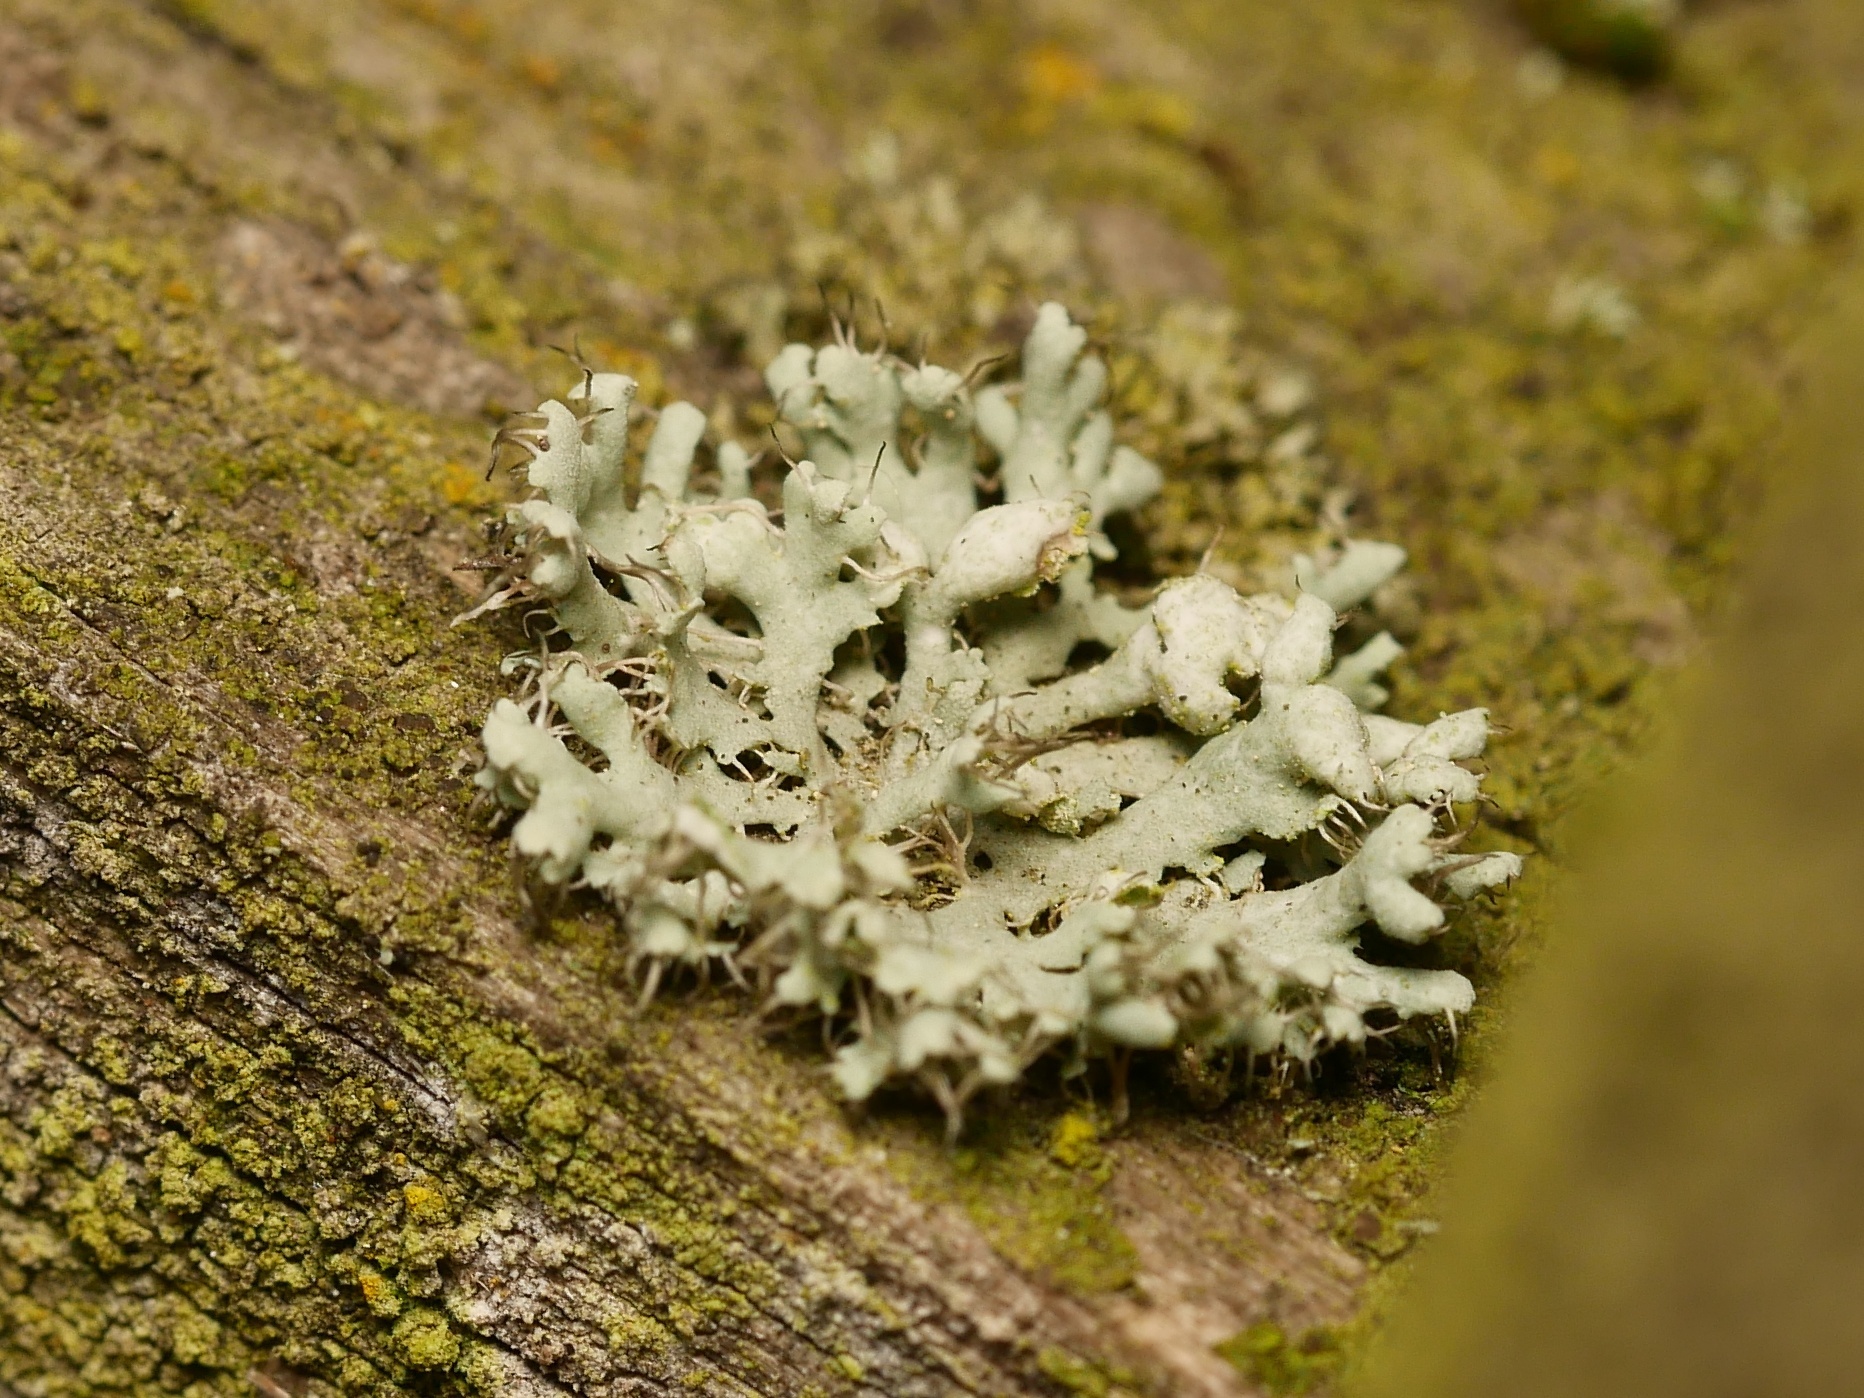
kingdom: Fungi
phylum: Ascomycota
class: Lecanoromycetes
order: Caliciales
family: Physciaceae
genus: Physcia
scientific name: Physcia adscendens
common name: Hooded rosette lichen
